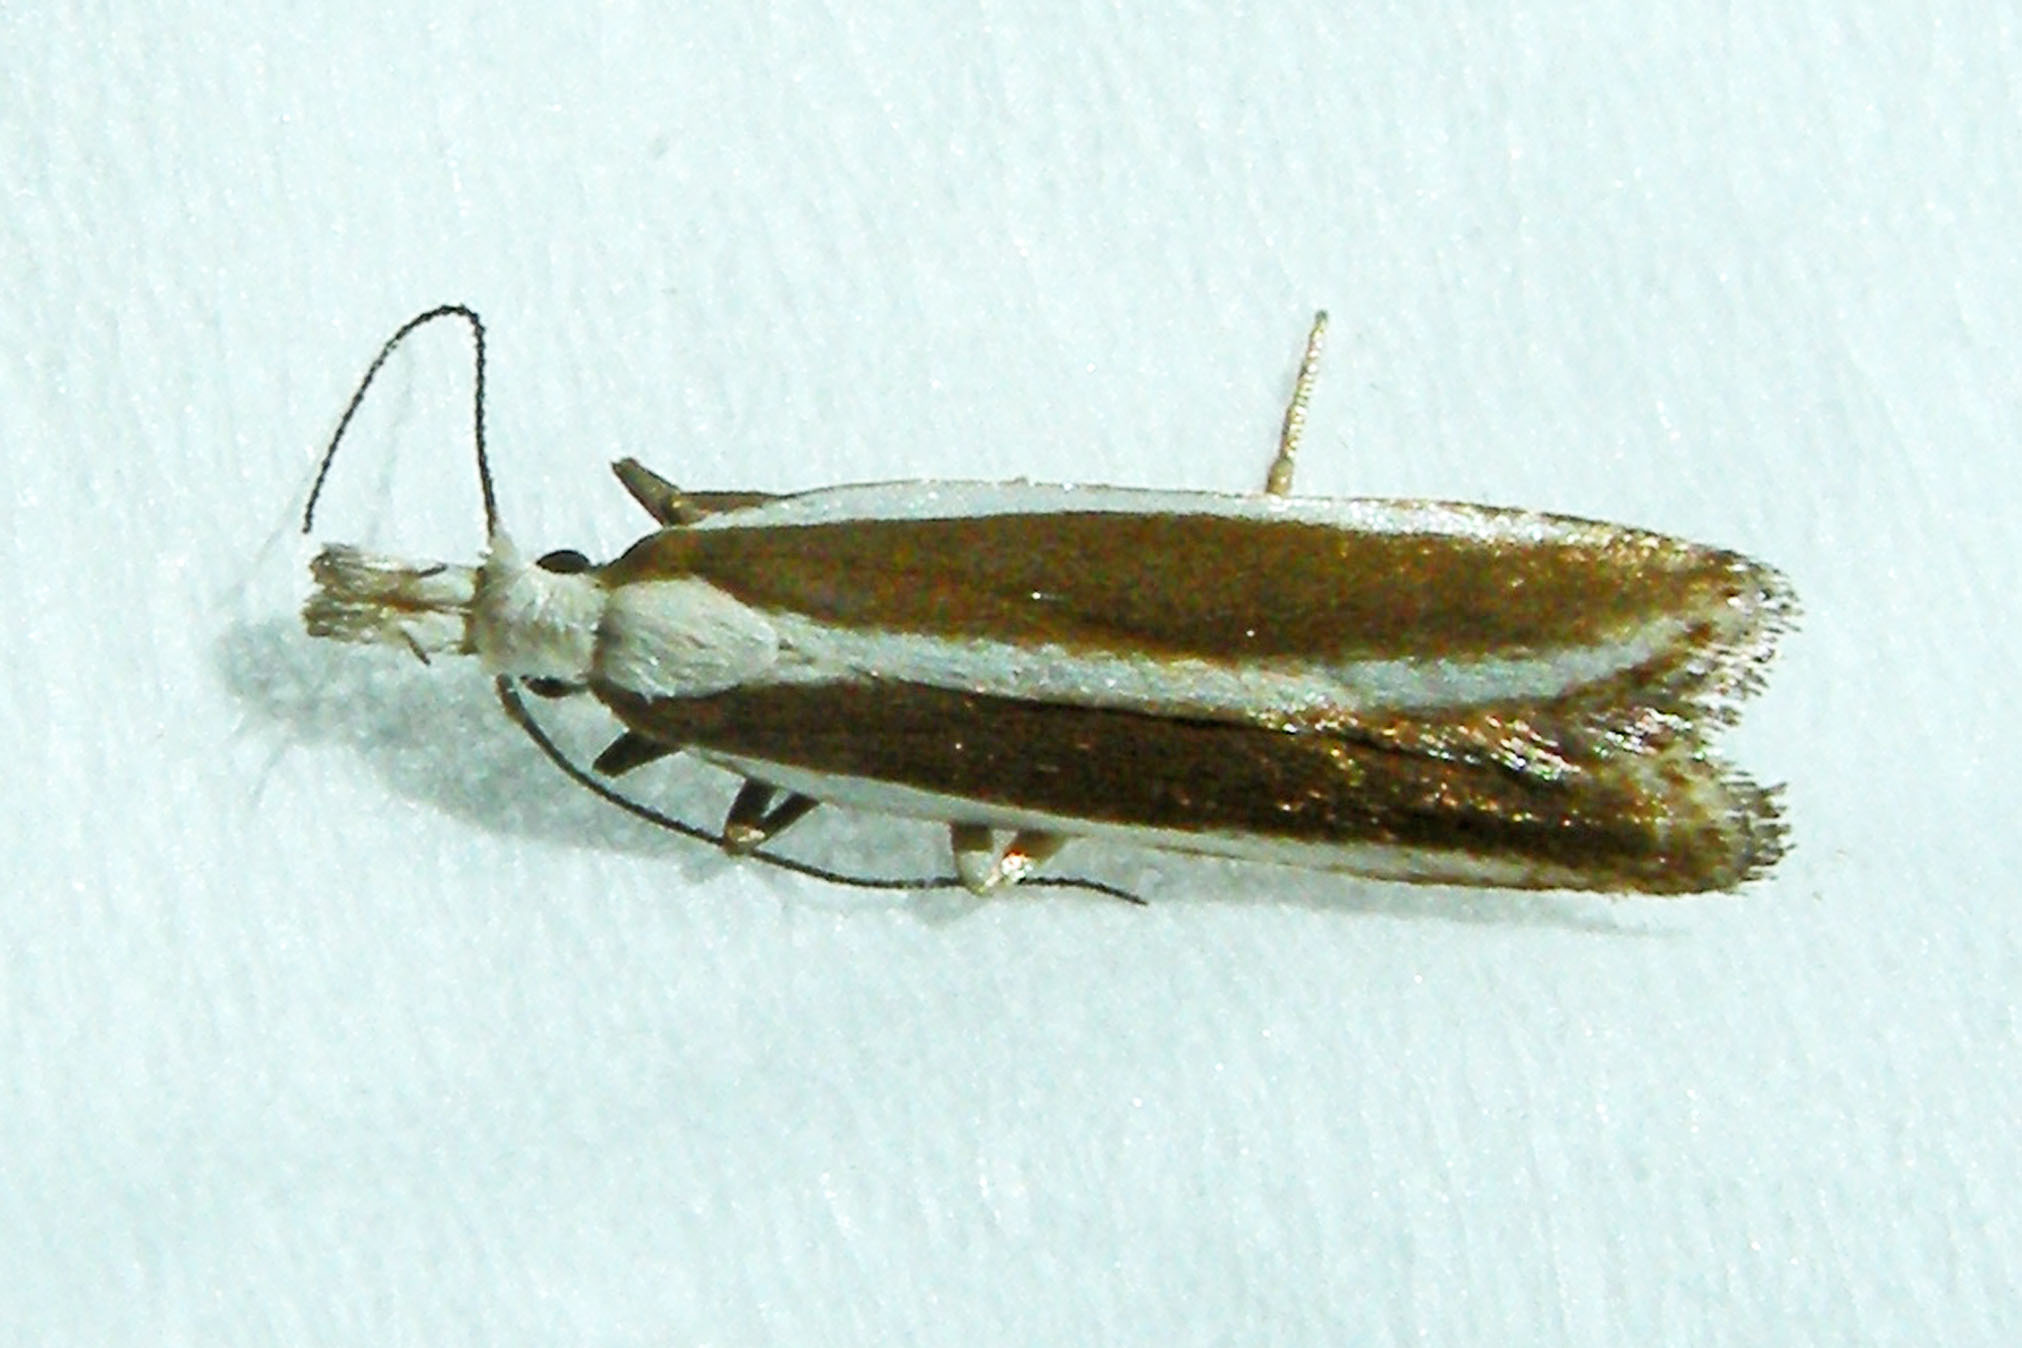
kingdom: Animalia
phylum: Arthropoda
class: Insecta
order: Lepidoptera
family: Gelechiidae
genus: Dichomeris
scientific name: Dichomeris marginella
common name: Juniper webworm
